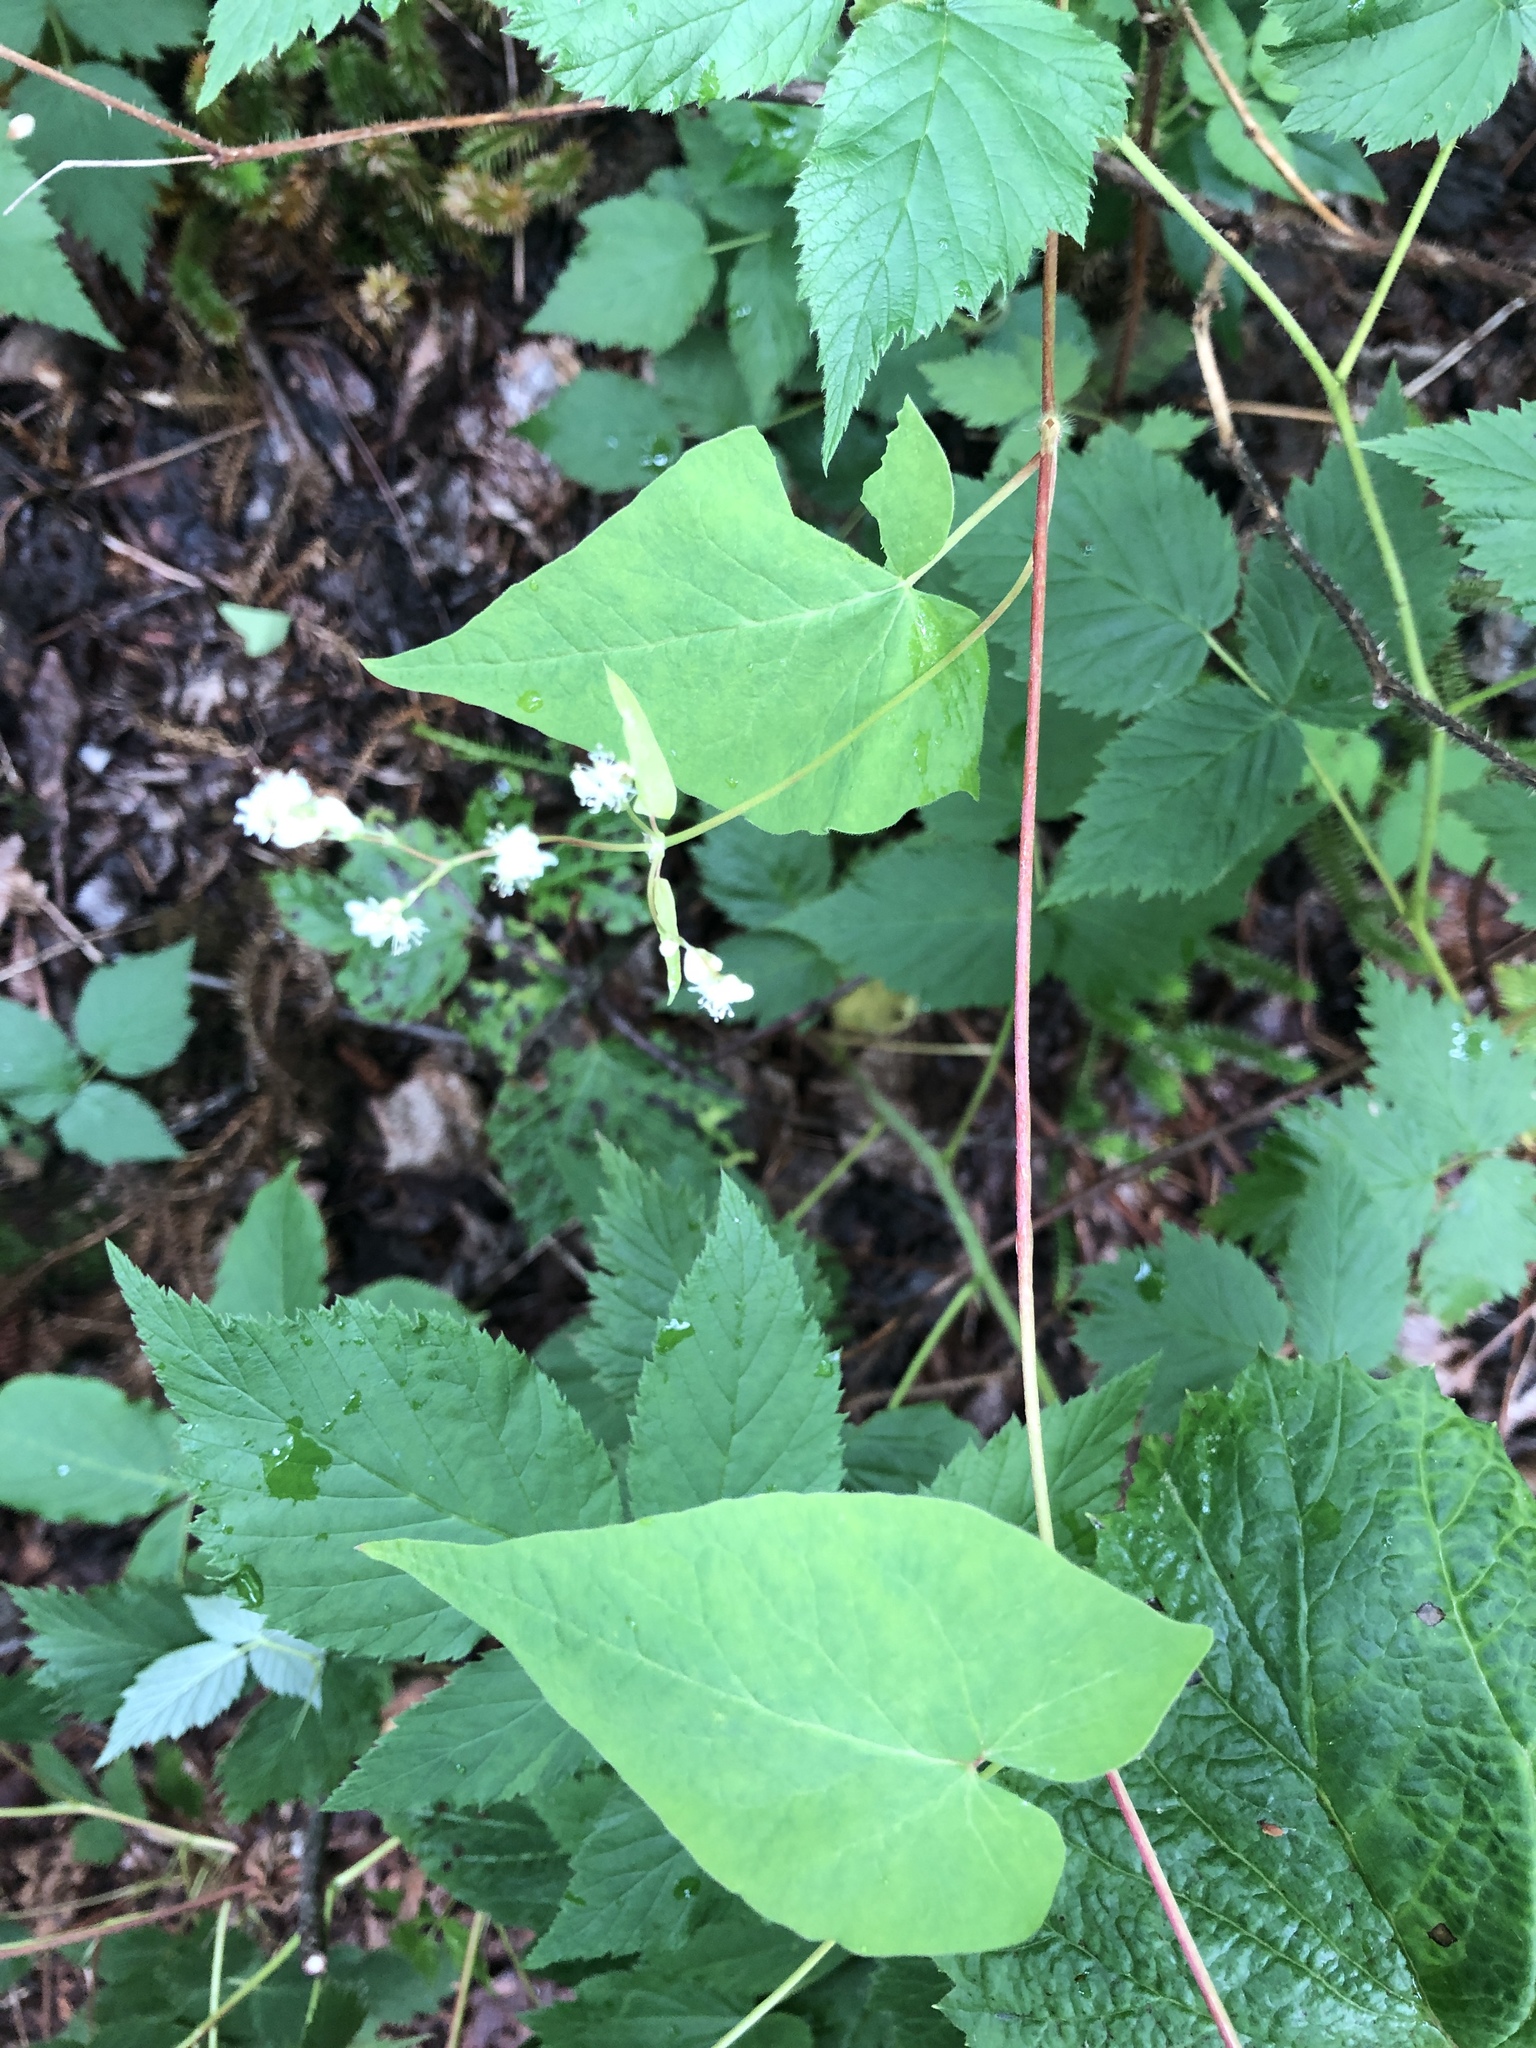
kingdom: Plantae
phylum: Tracheophyta
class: Magnoliopsida
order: Caryophyllales
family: Polygonaceae
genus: Parogonum
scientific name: Parogonum ciliinode
